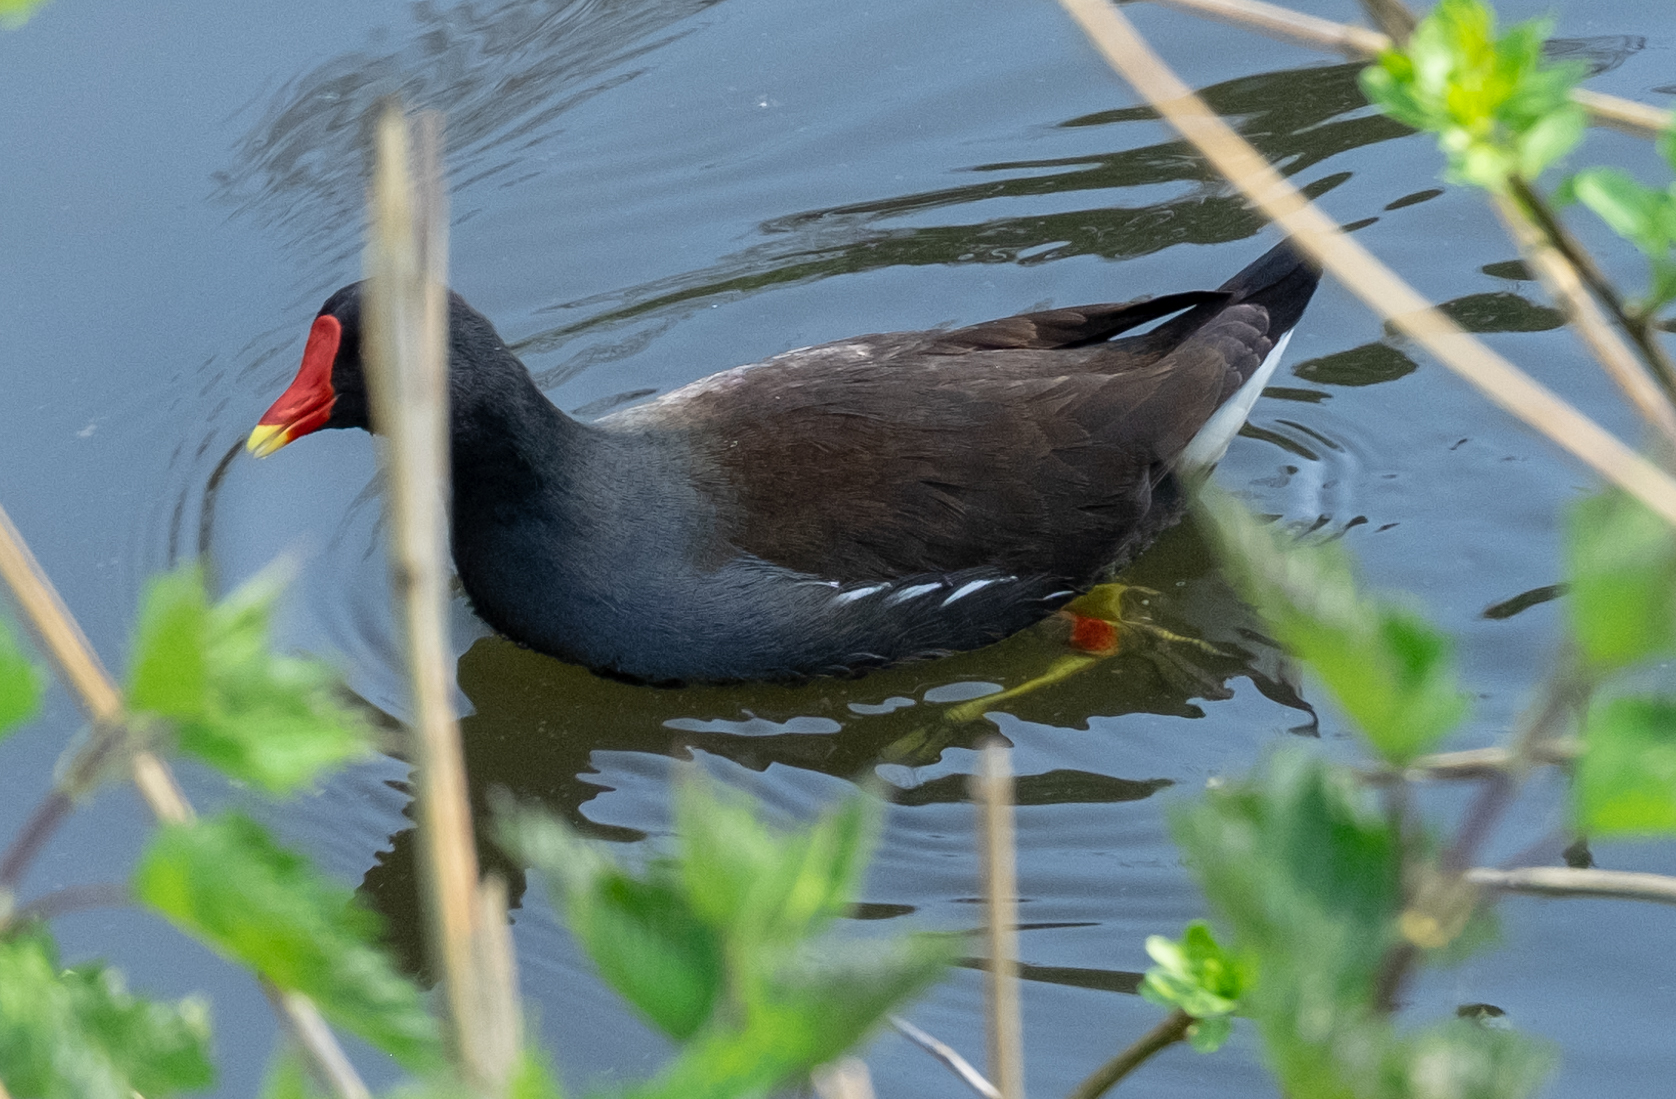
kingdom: Animalia
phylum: Chordata
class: Aves
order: Gruiformes
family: Rallidae
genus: Gallinula
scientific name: Gallinula chloropus
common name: Common moorhen
